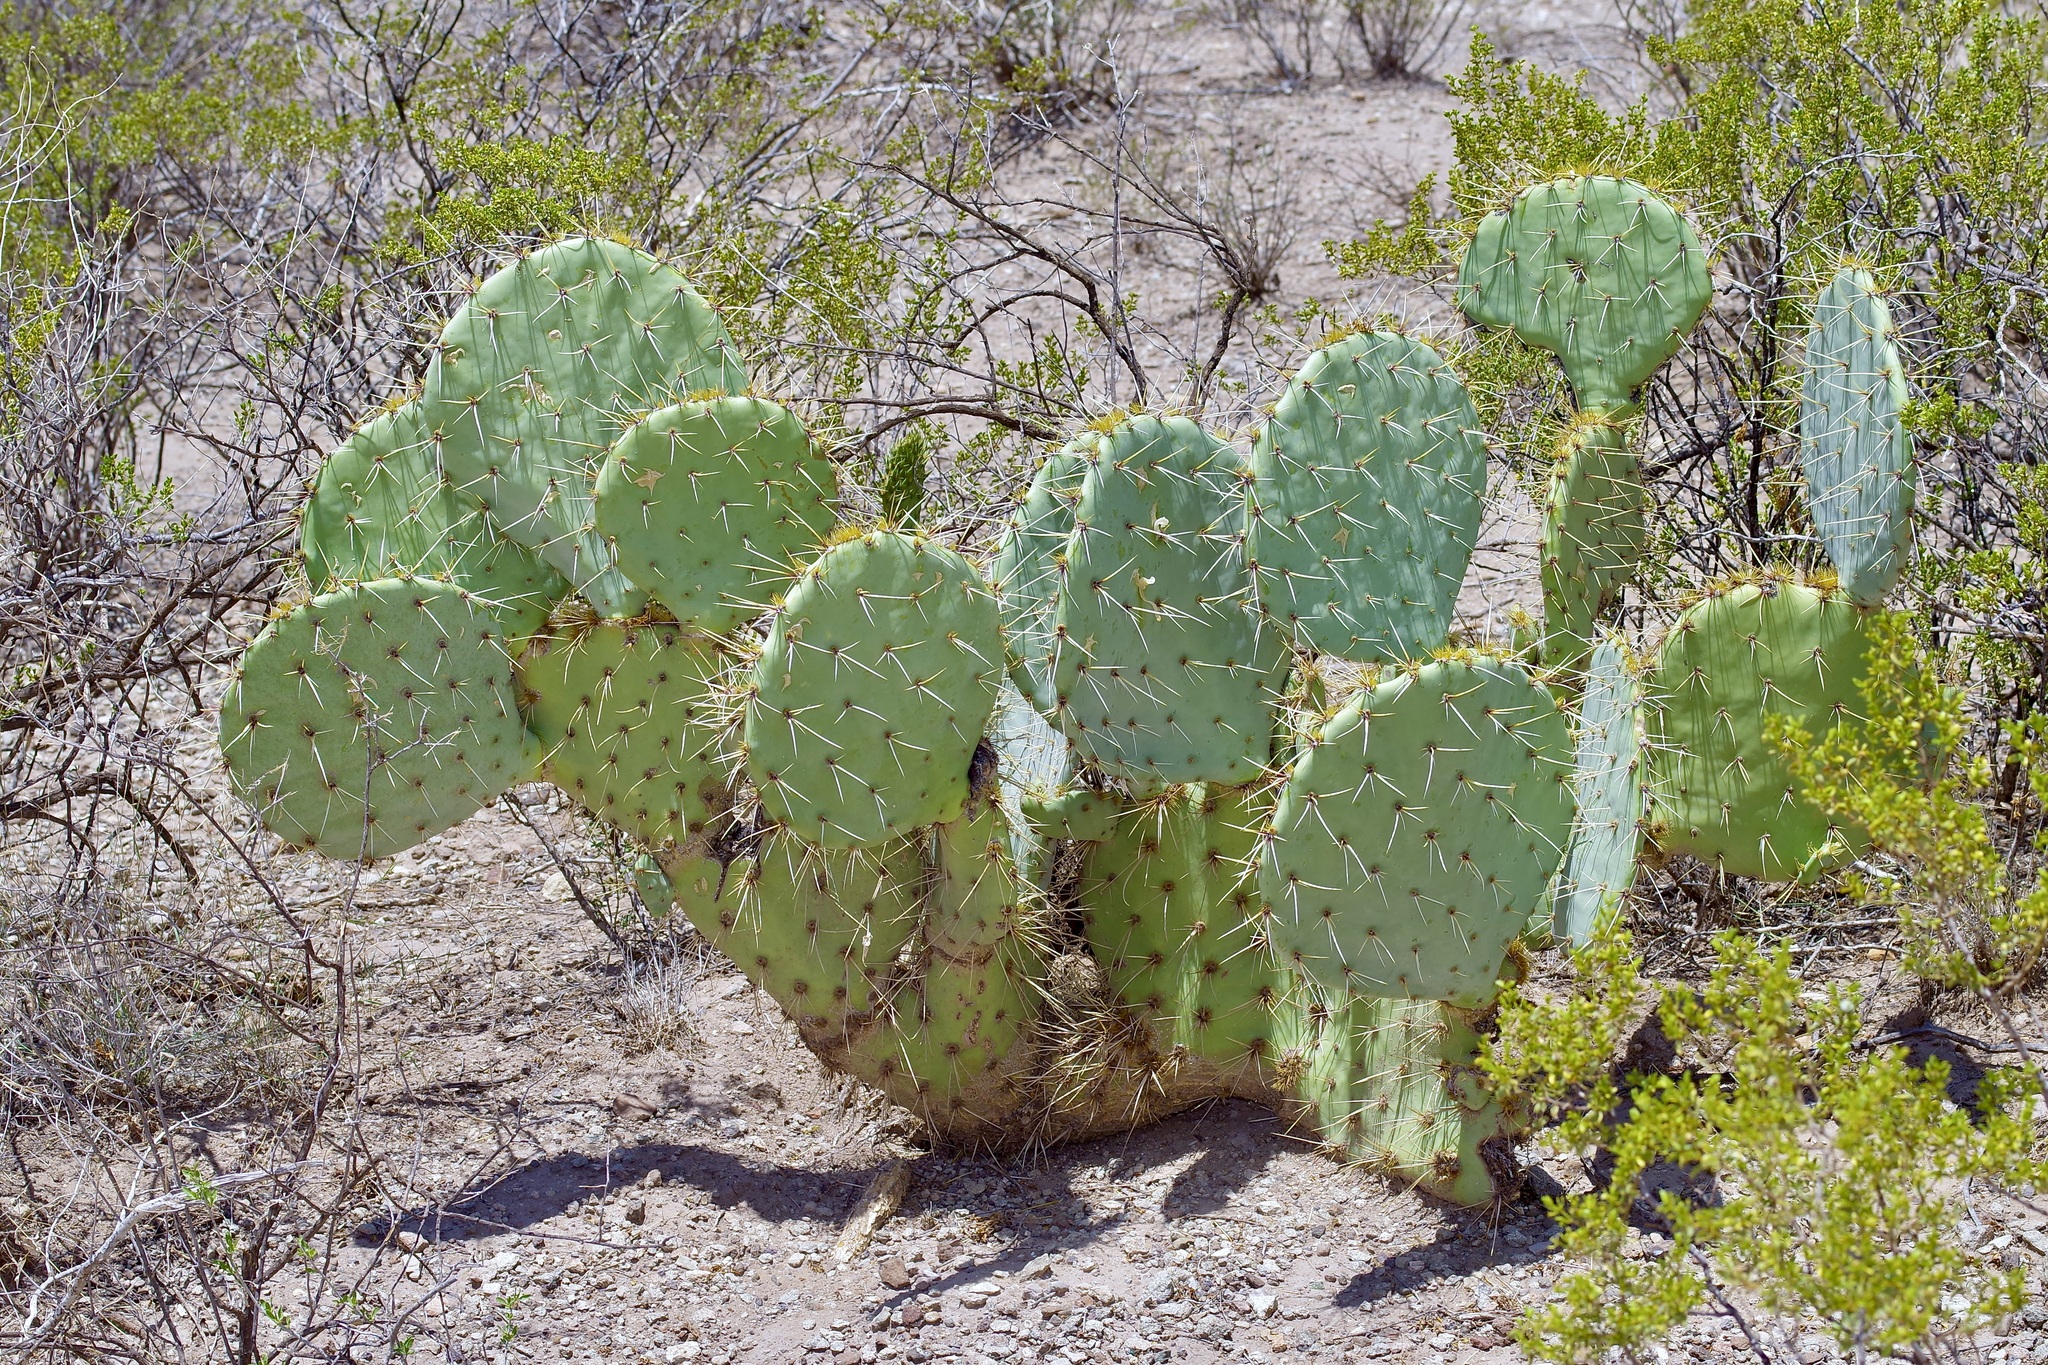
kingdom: Plantae
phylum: Tracheophyta
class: Magnoliopsida
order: Caryophyllales
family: Cactaceae
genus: Opuntia
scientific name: Opuntia orbiculata
